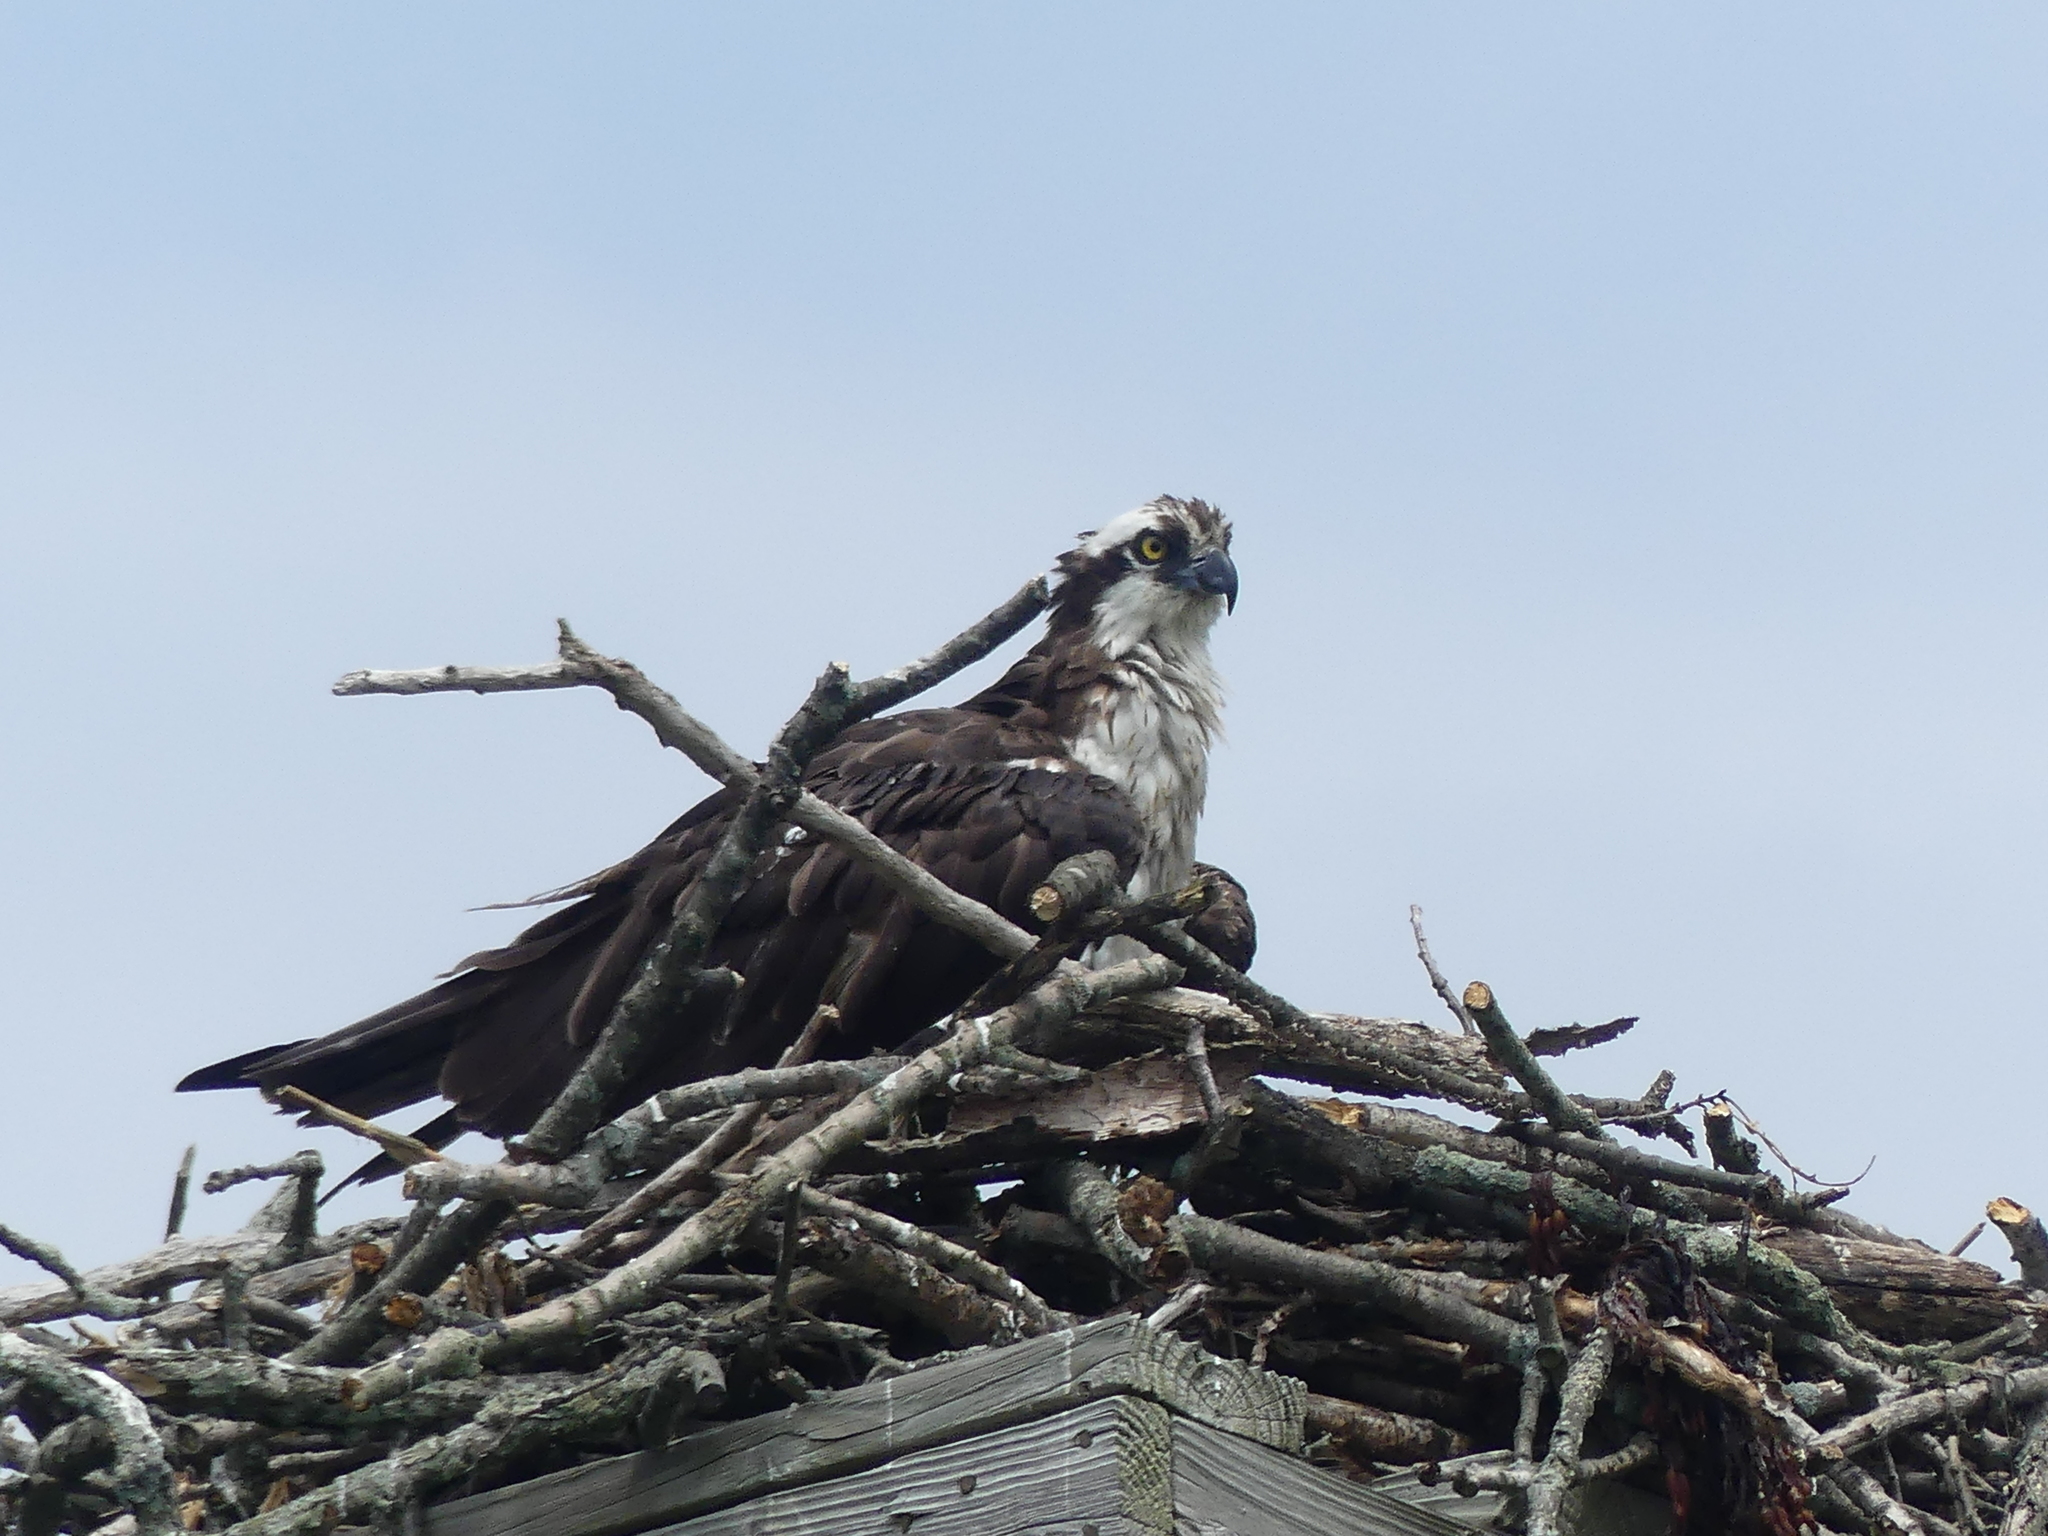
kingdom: Animalia
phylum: Chordata
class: Aves
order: Accipitriformes
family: Pandionidae
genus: Pandion
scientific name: Pandion haliaetus
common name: Osprey
